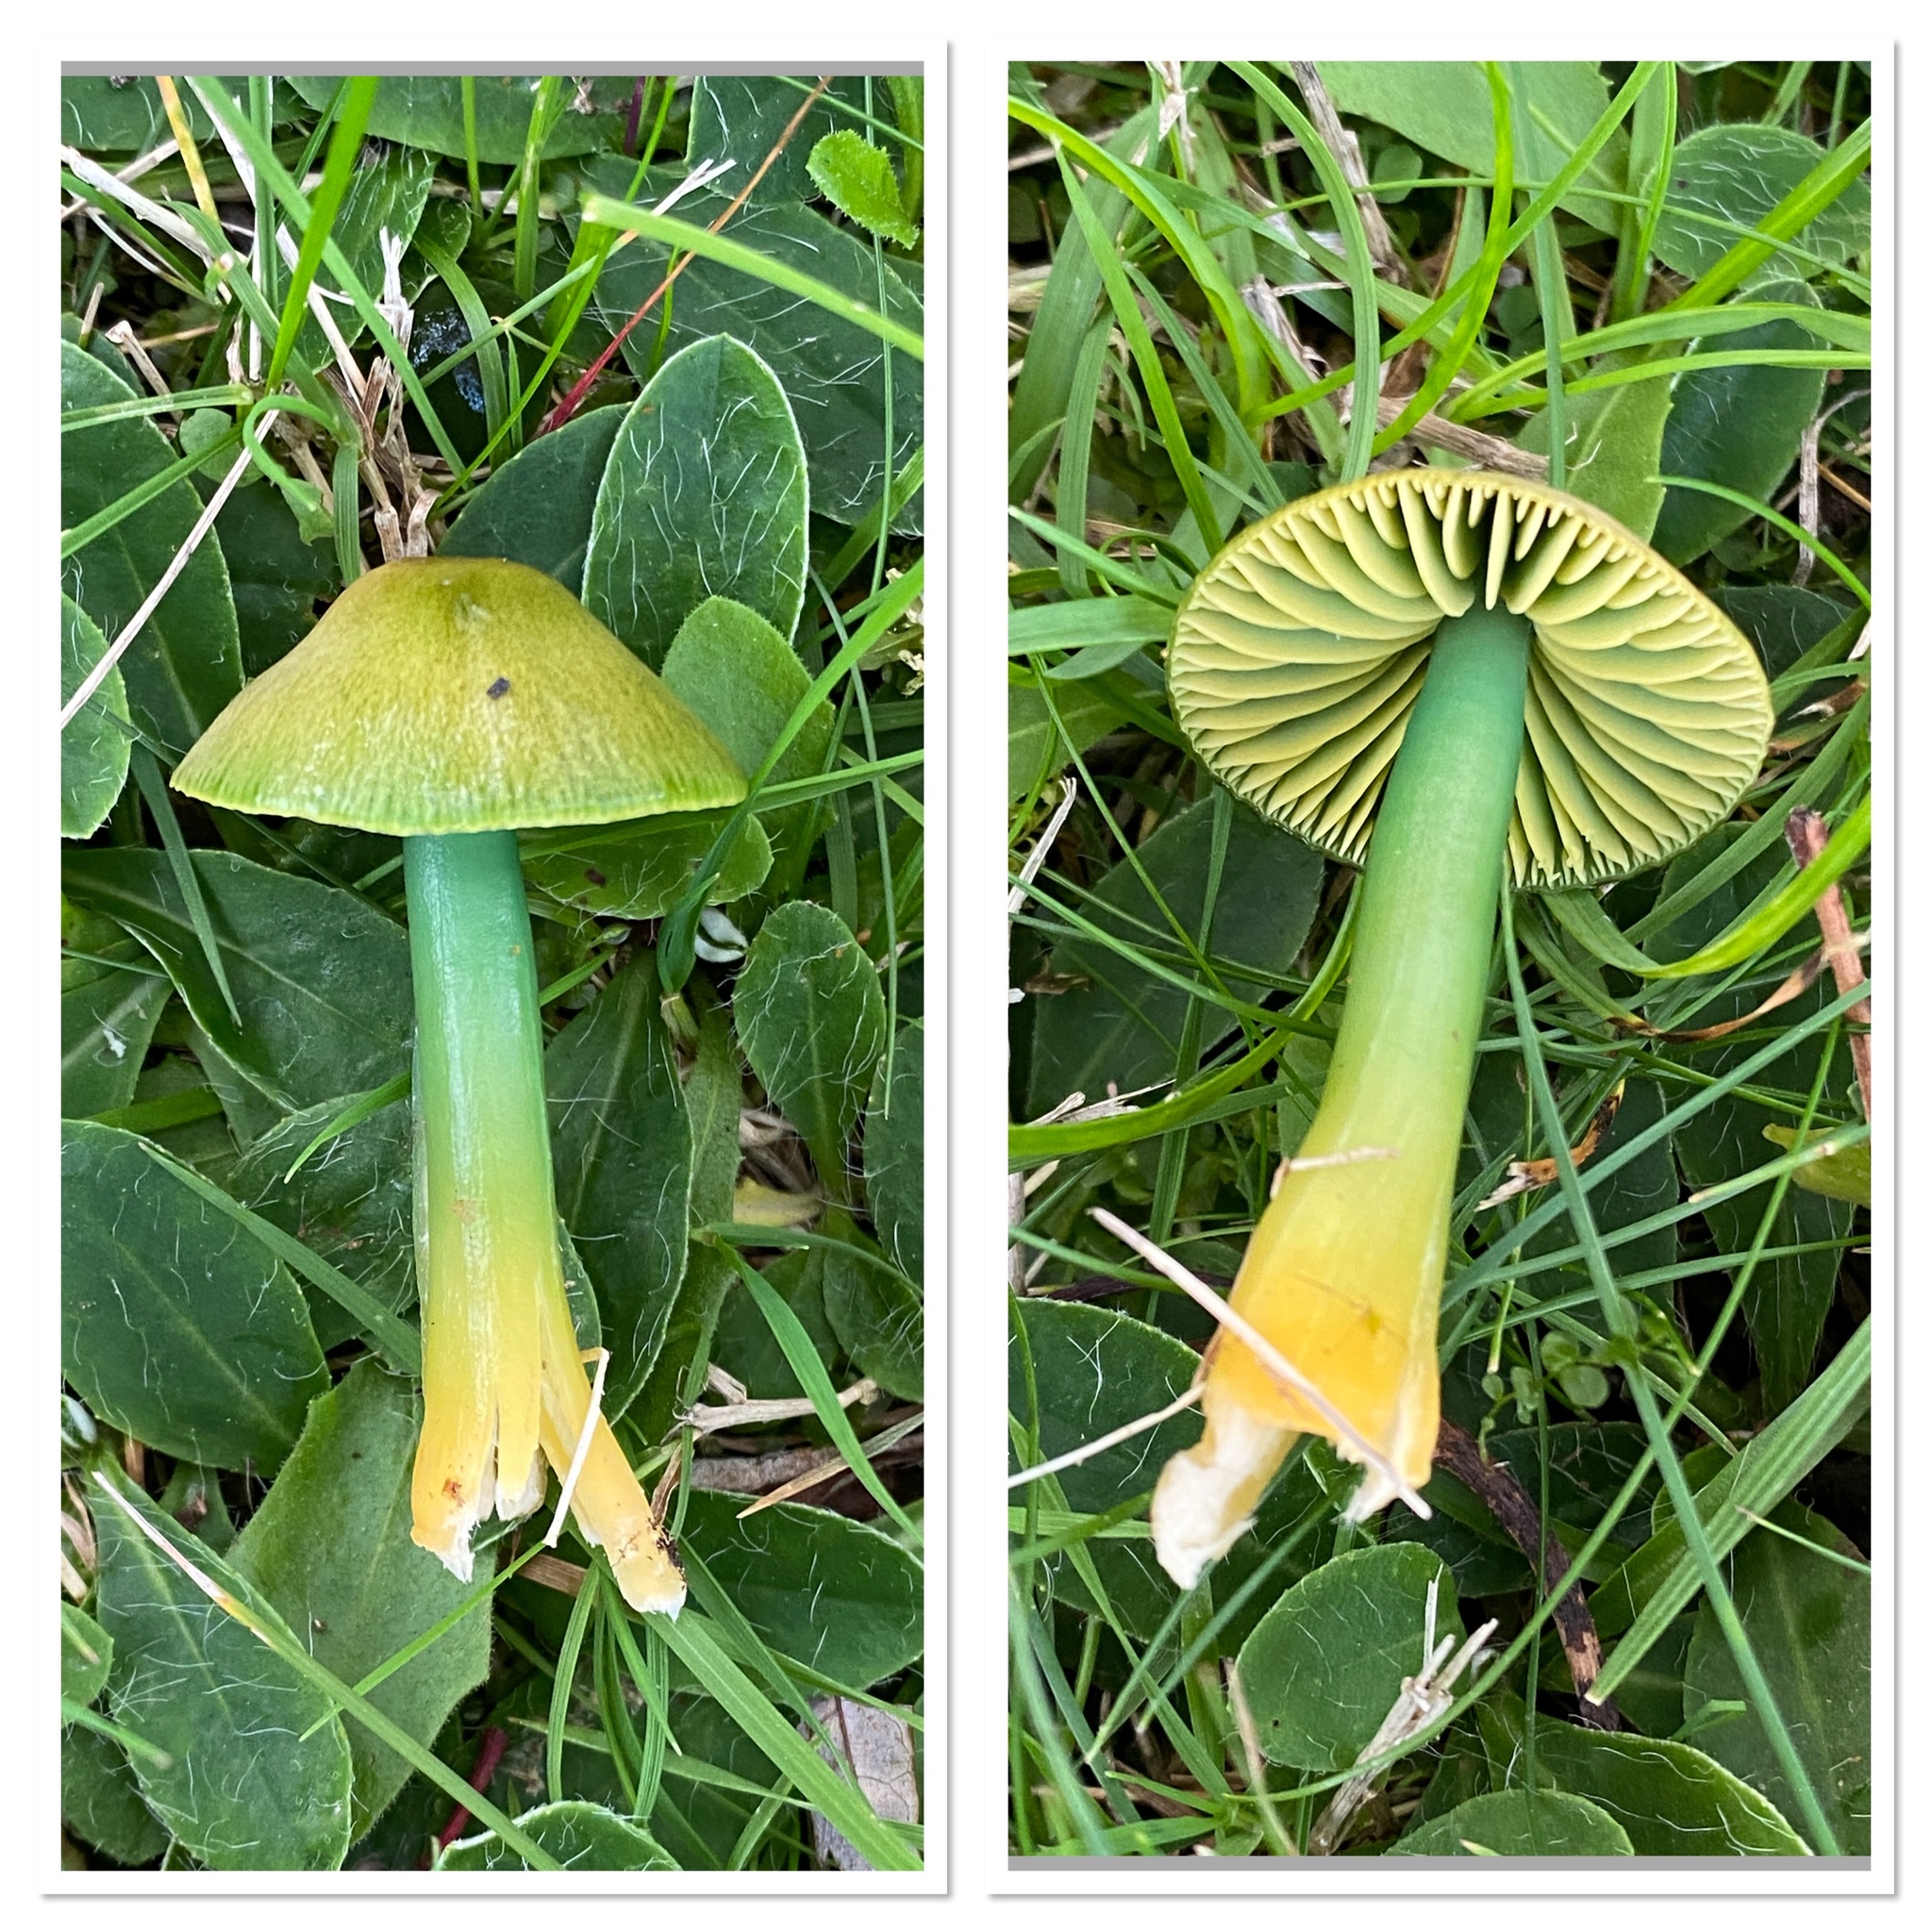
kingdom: Fungi
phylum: Basidiomycota
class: Agaricomycetes
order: Agaricales
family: Hygrophoraceae
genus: Gliophorus
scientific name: Gliophorus psittacinus
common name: Parrot wax-cap
